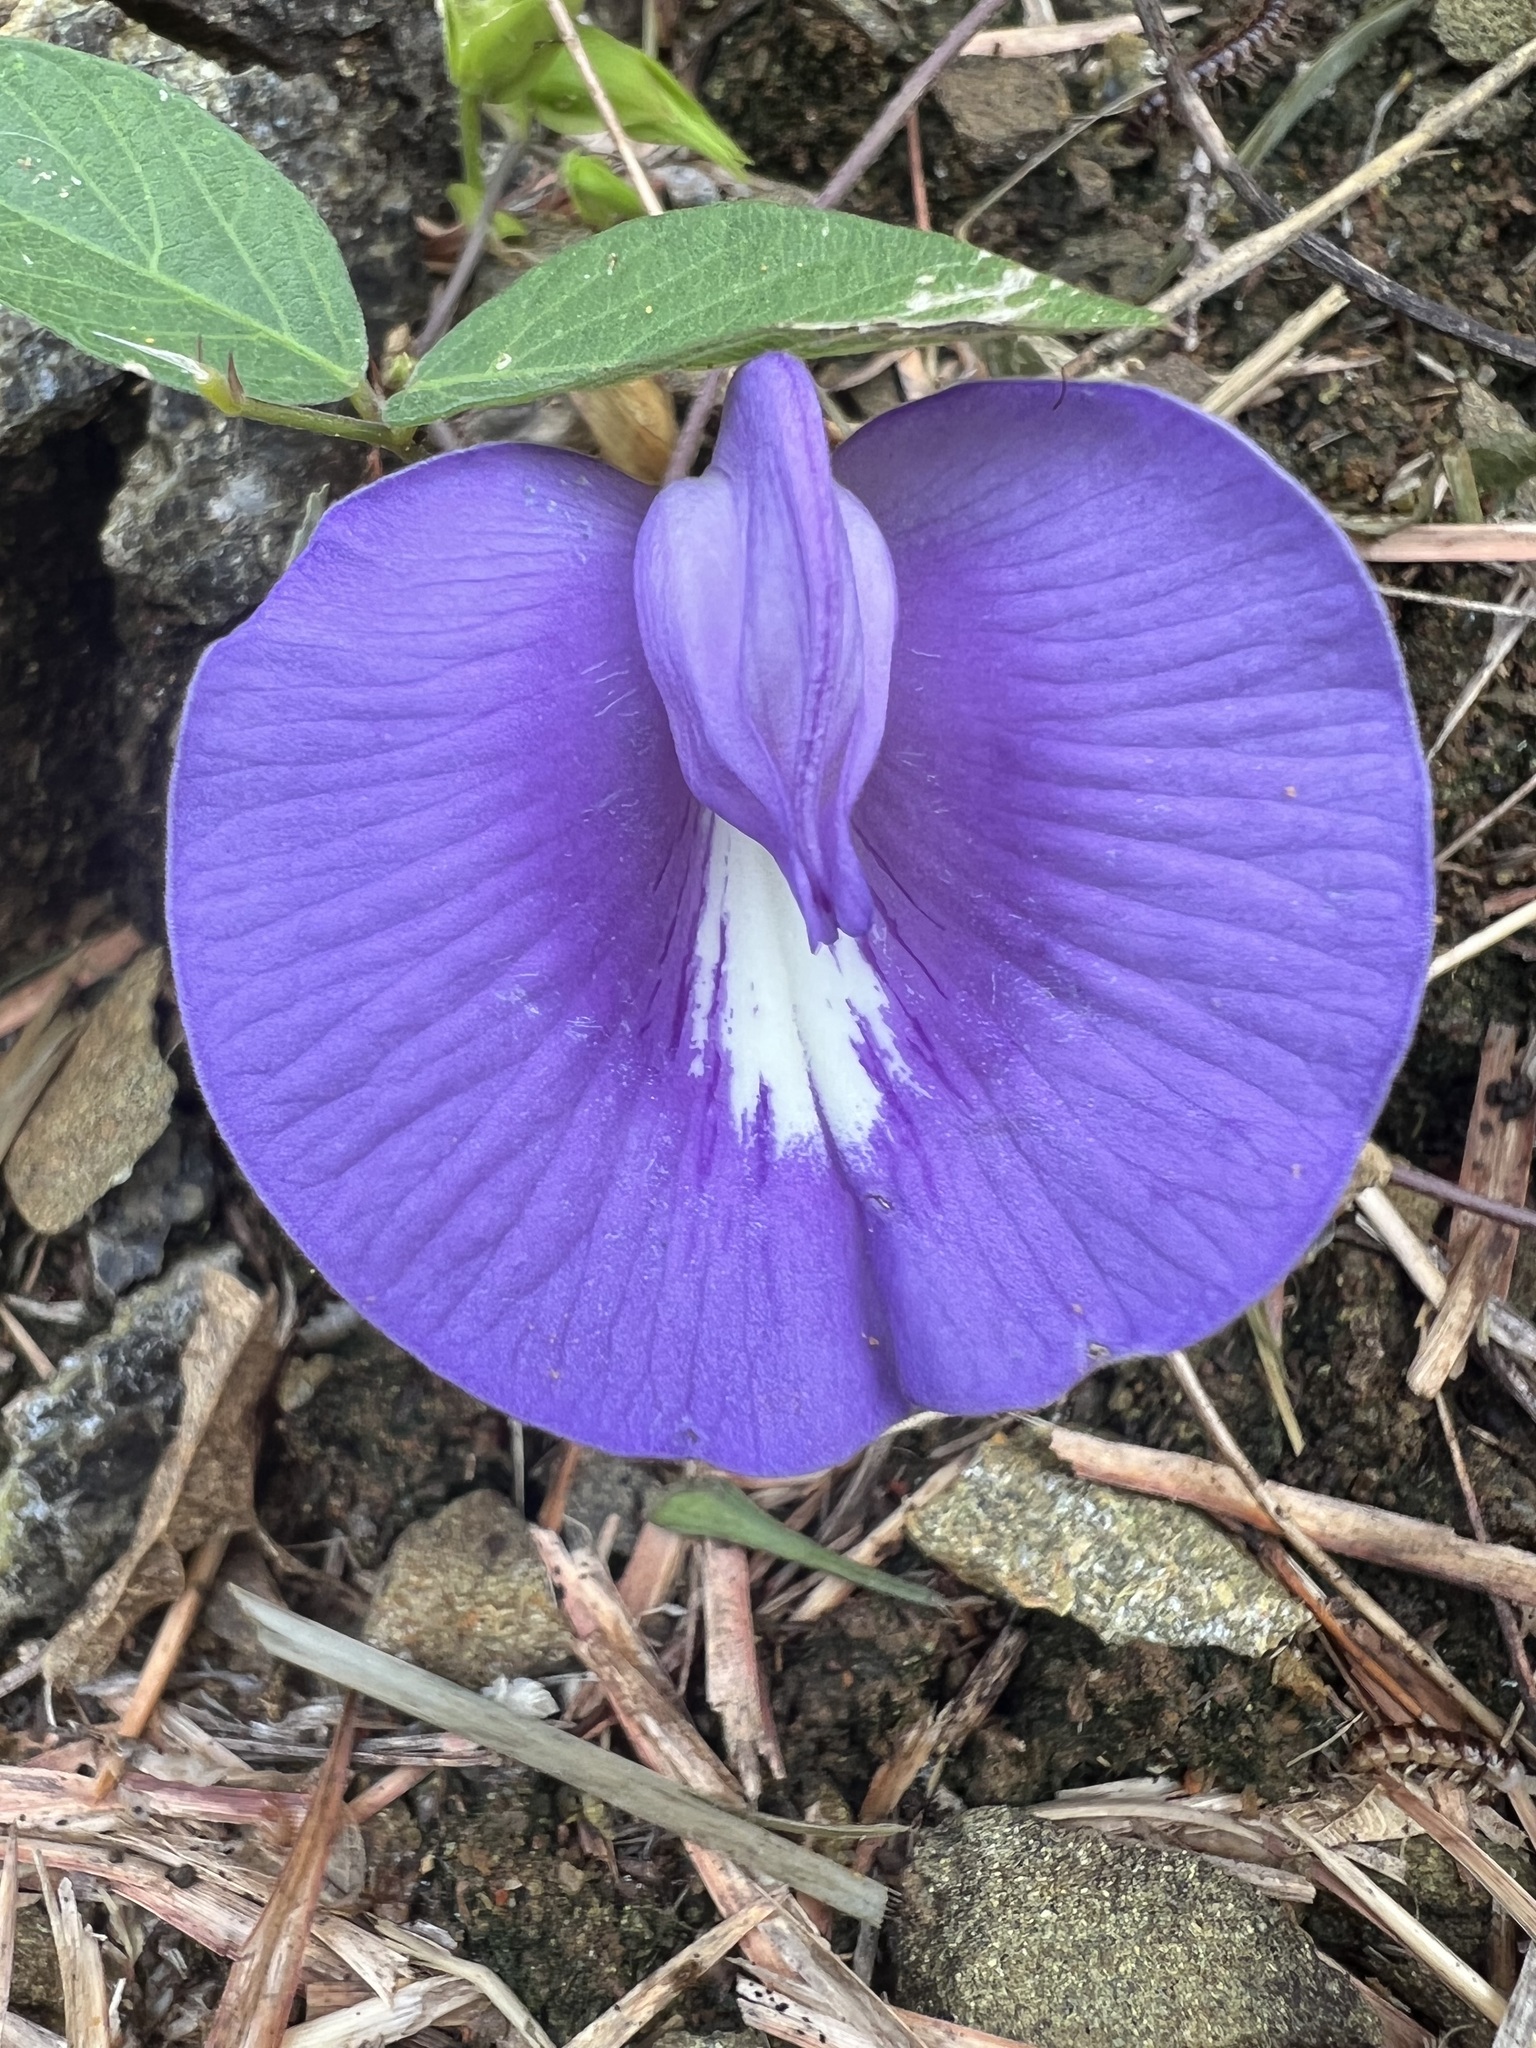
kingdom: Plantae
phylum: Tracheophyta
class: Magnoliopsida
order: Fabales
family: Fabaceae
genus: Centrosema
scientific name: Centrosema virginianum
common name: Butterfly-pea
